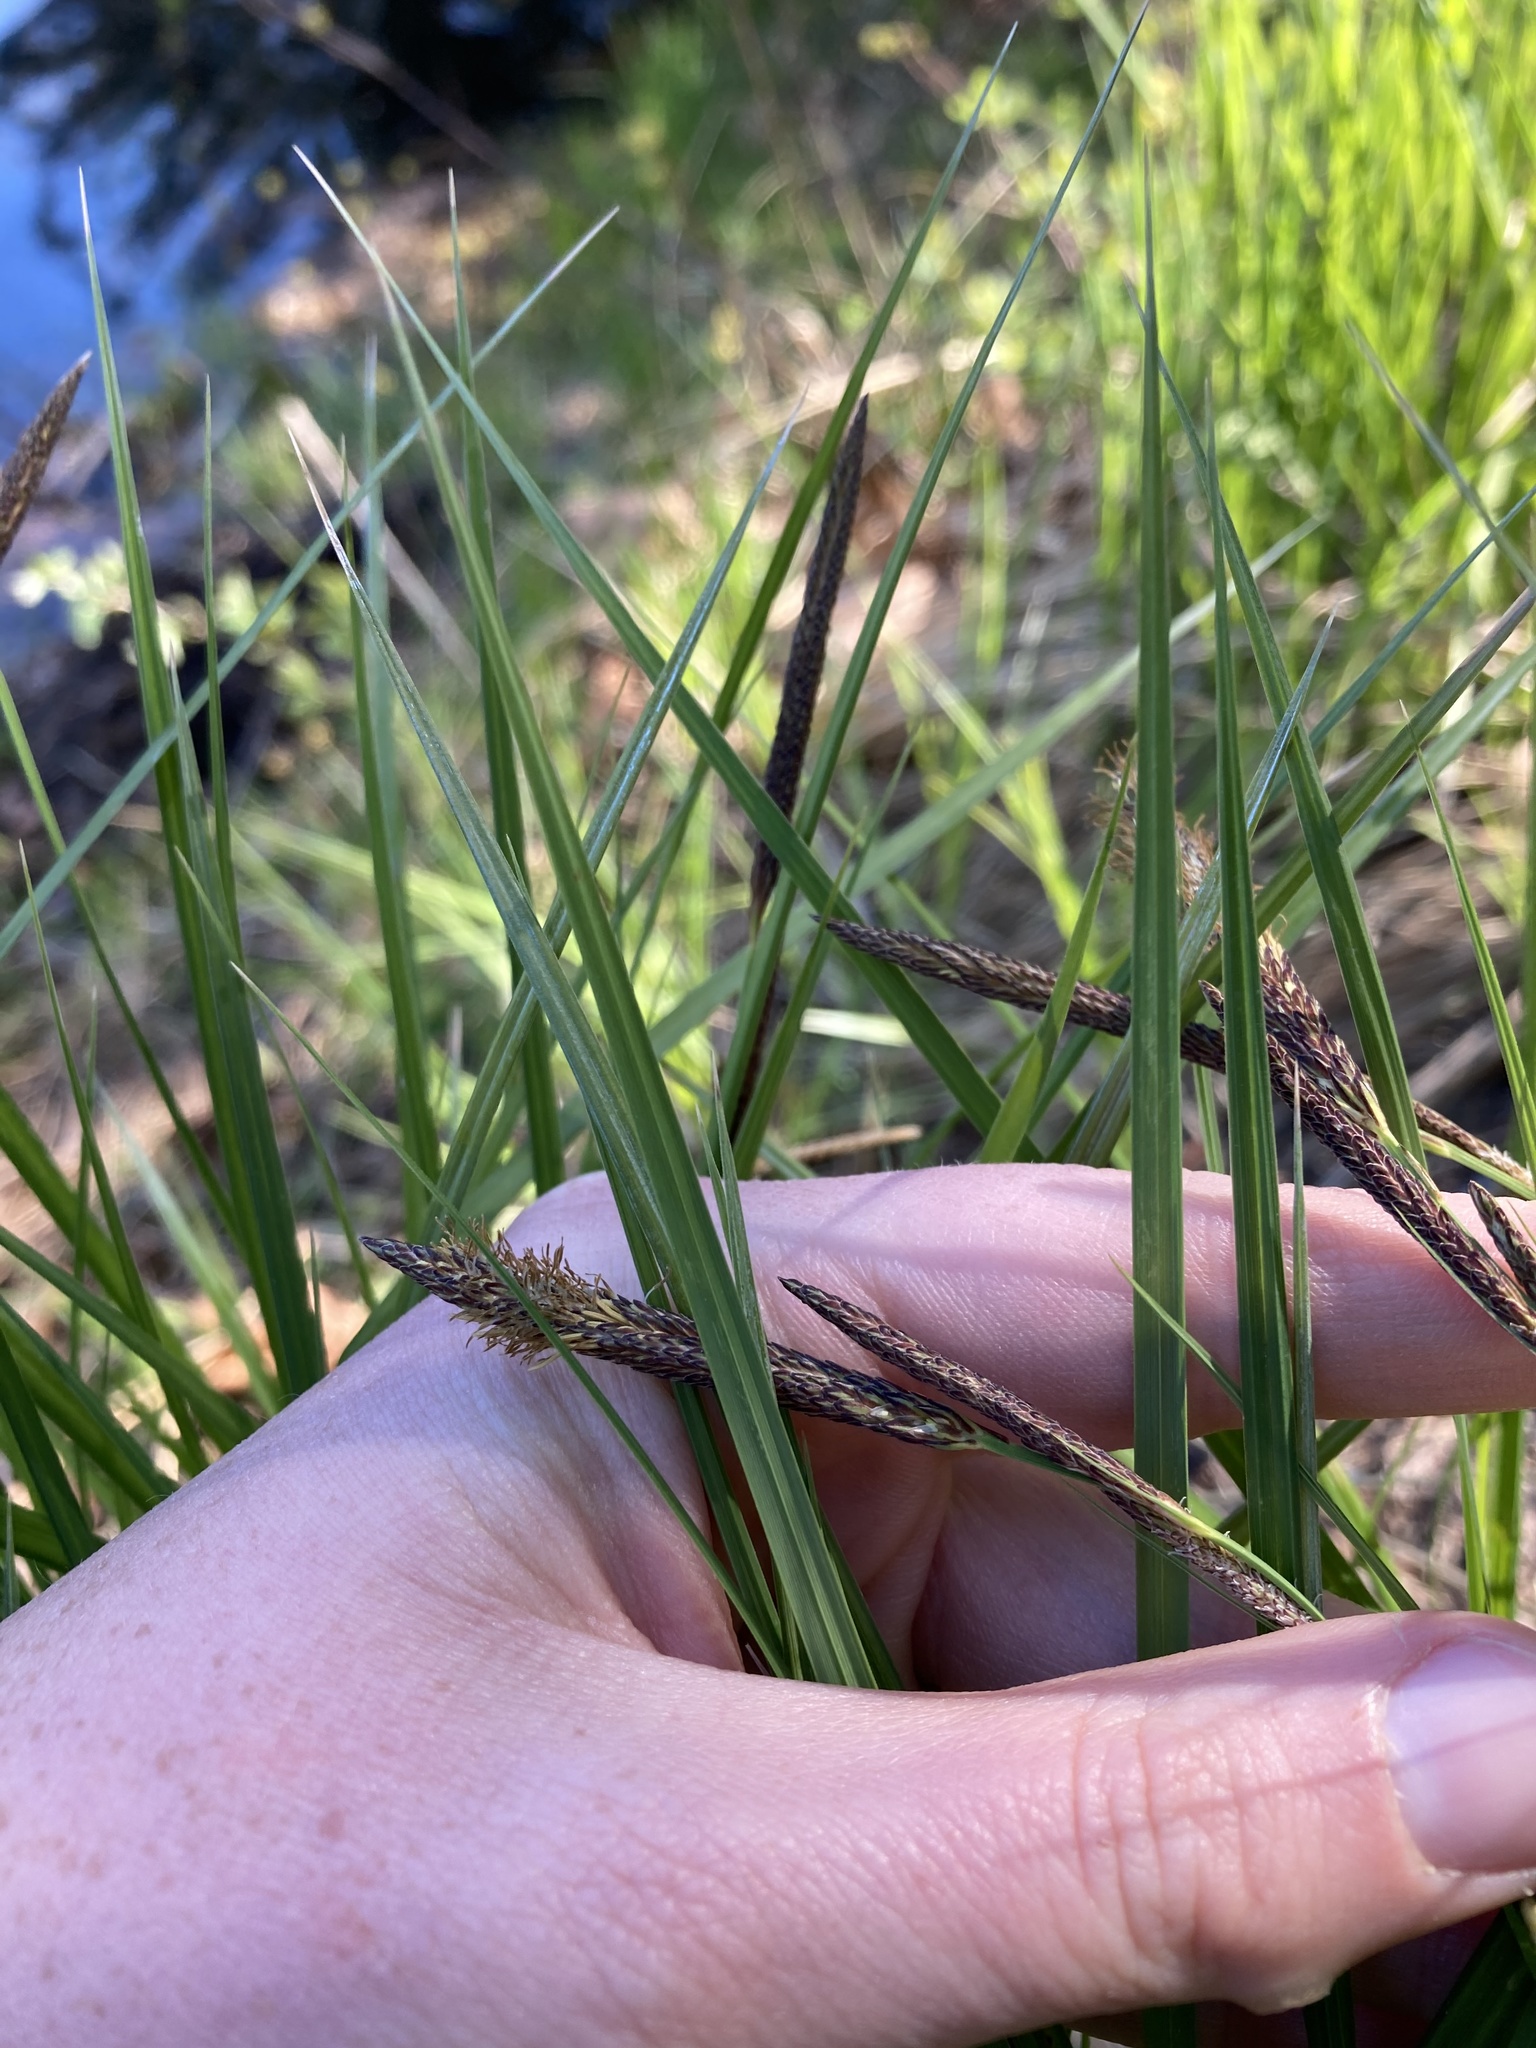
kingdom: Plantae
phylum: Tracheophyta
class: Liliopsida
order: Poales
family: Cyperaceae
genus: Carex
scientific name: Carex stricta
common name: Hummock sedge
